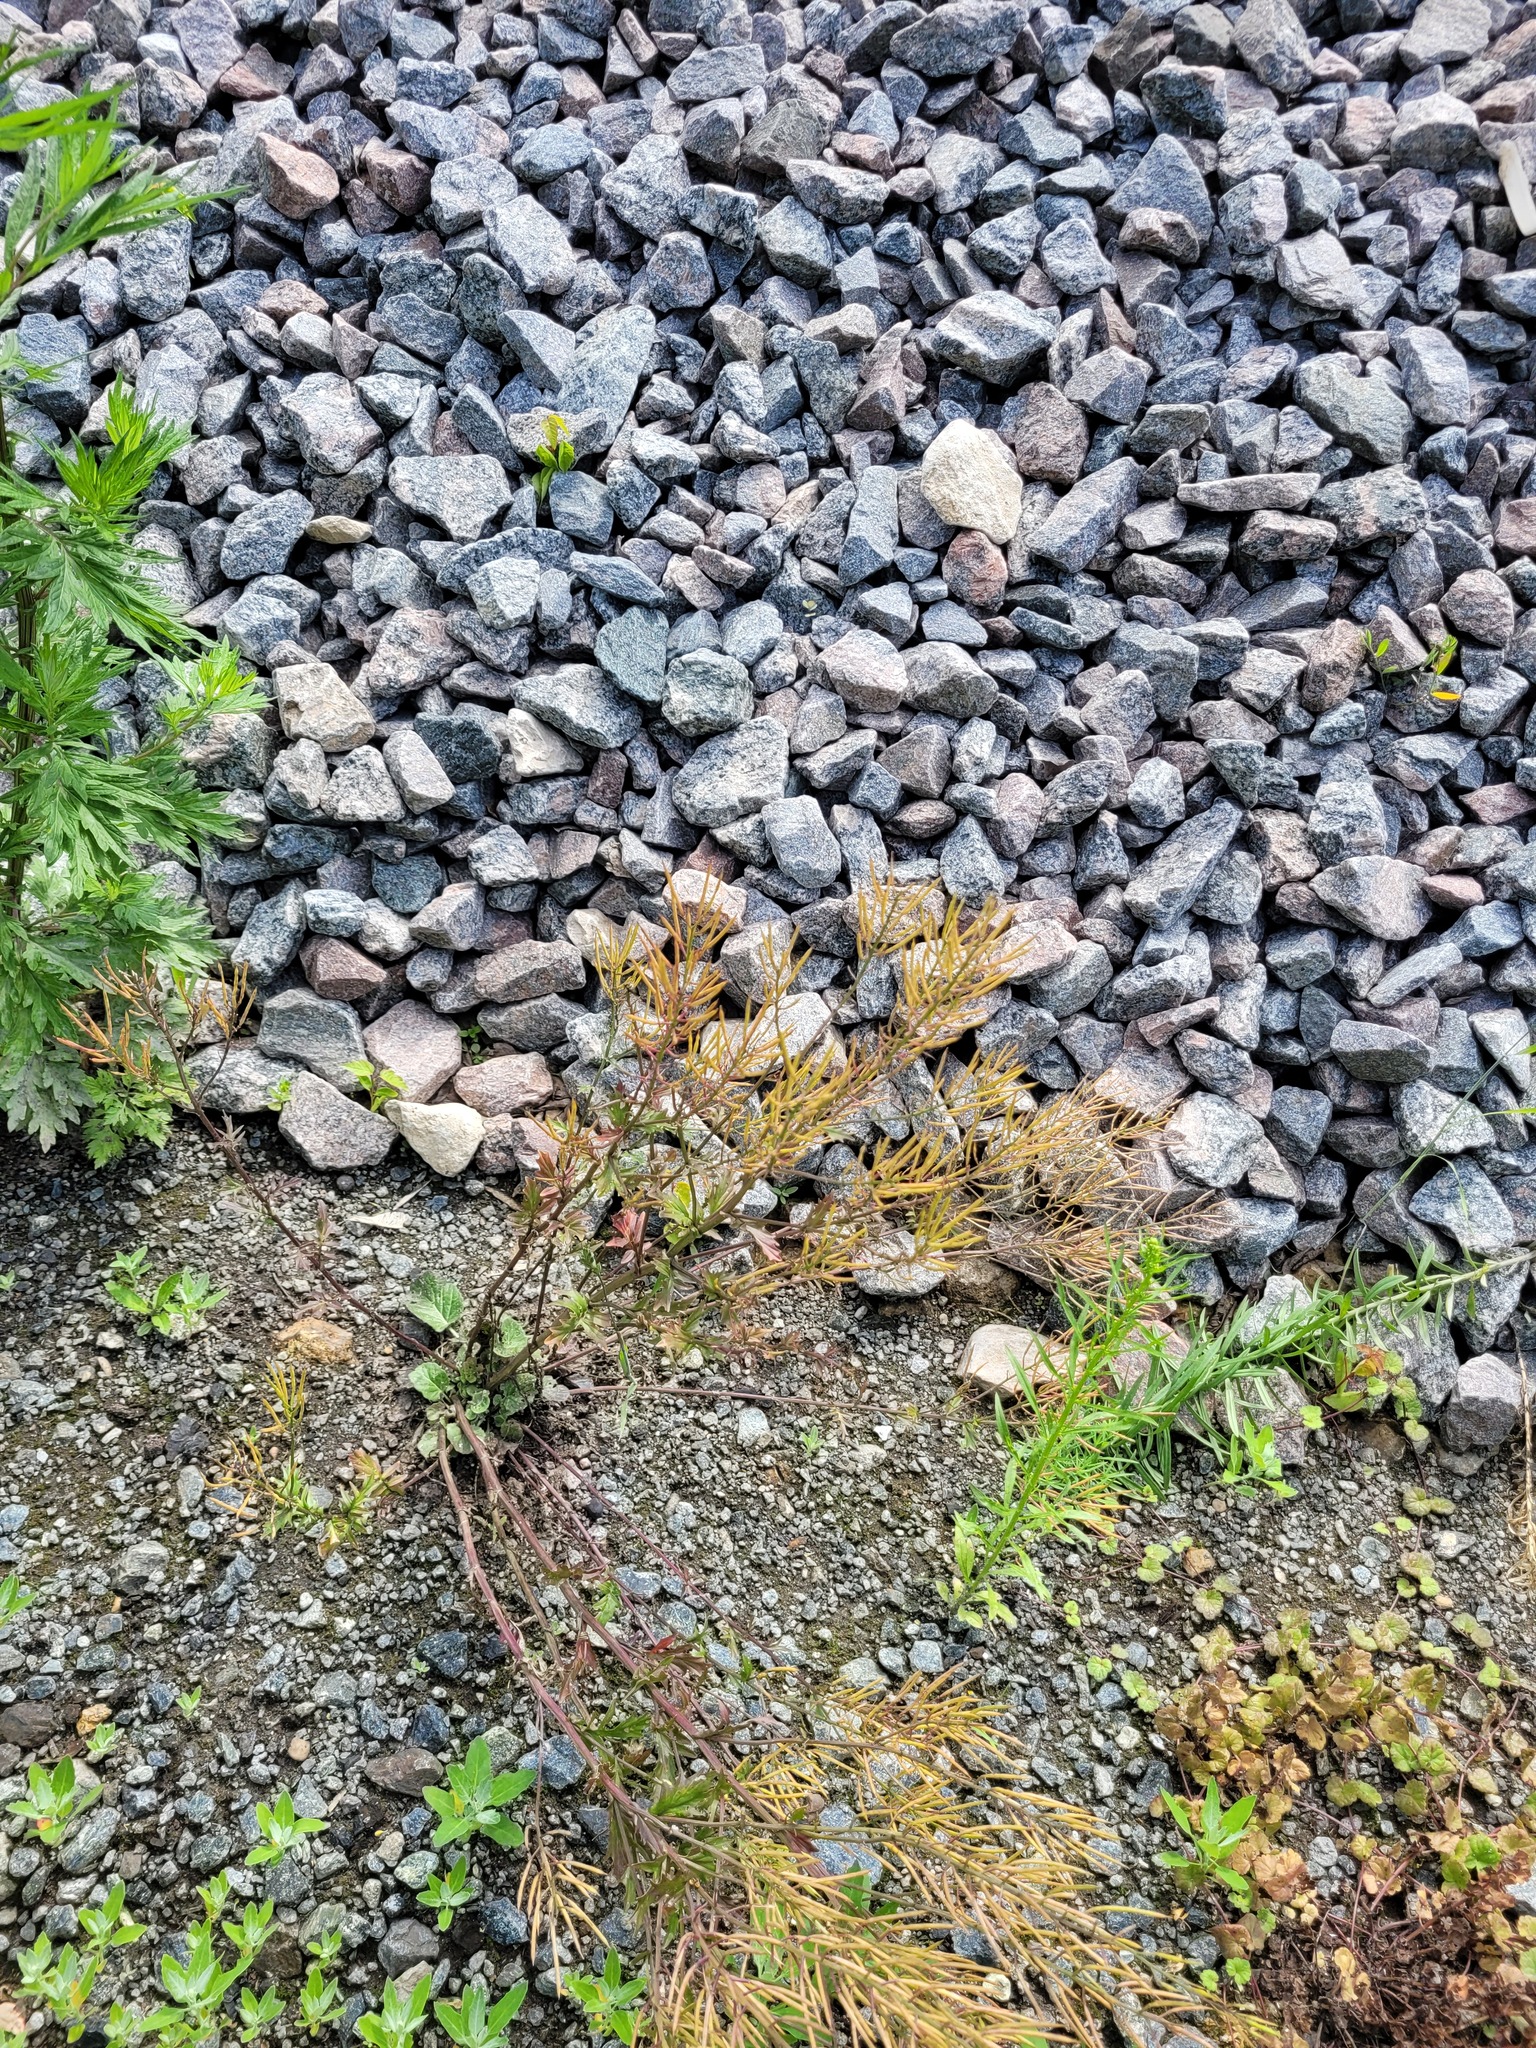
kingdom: Plantae
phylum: Tracheophyta
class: Magnoliopsida
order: Brassicales
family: Brassicaceae
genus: Barbarea
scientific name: Barbarea vulgaris
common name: Cressy-greens
